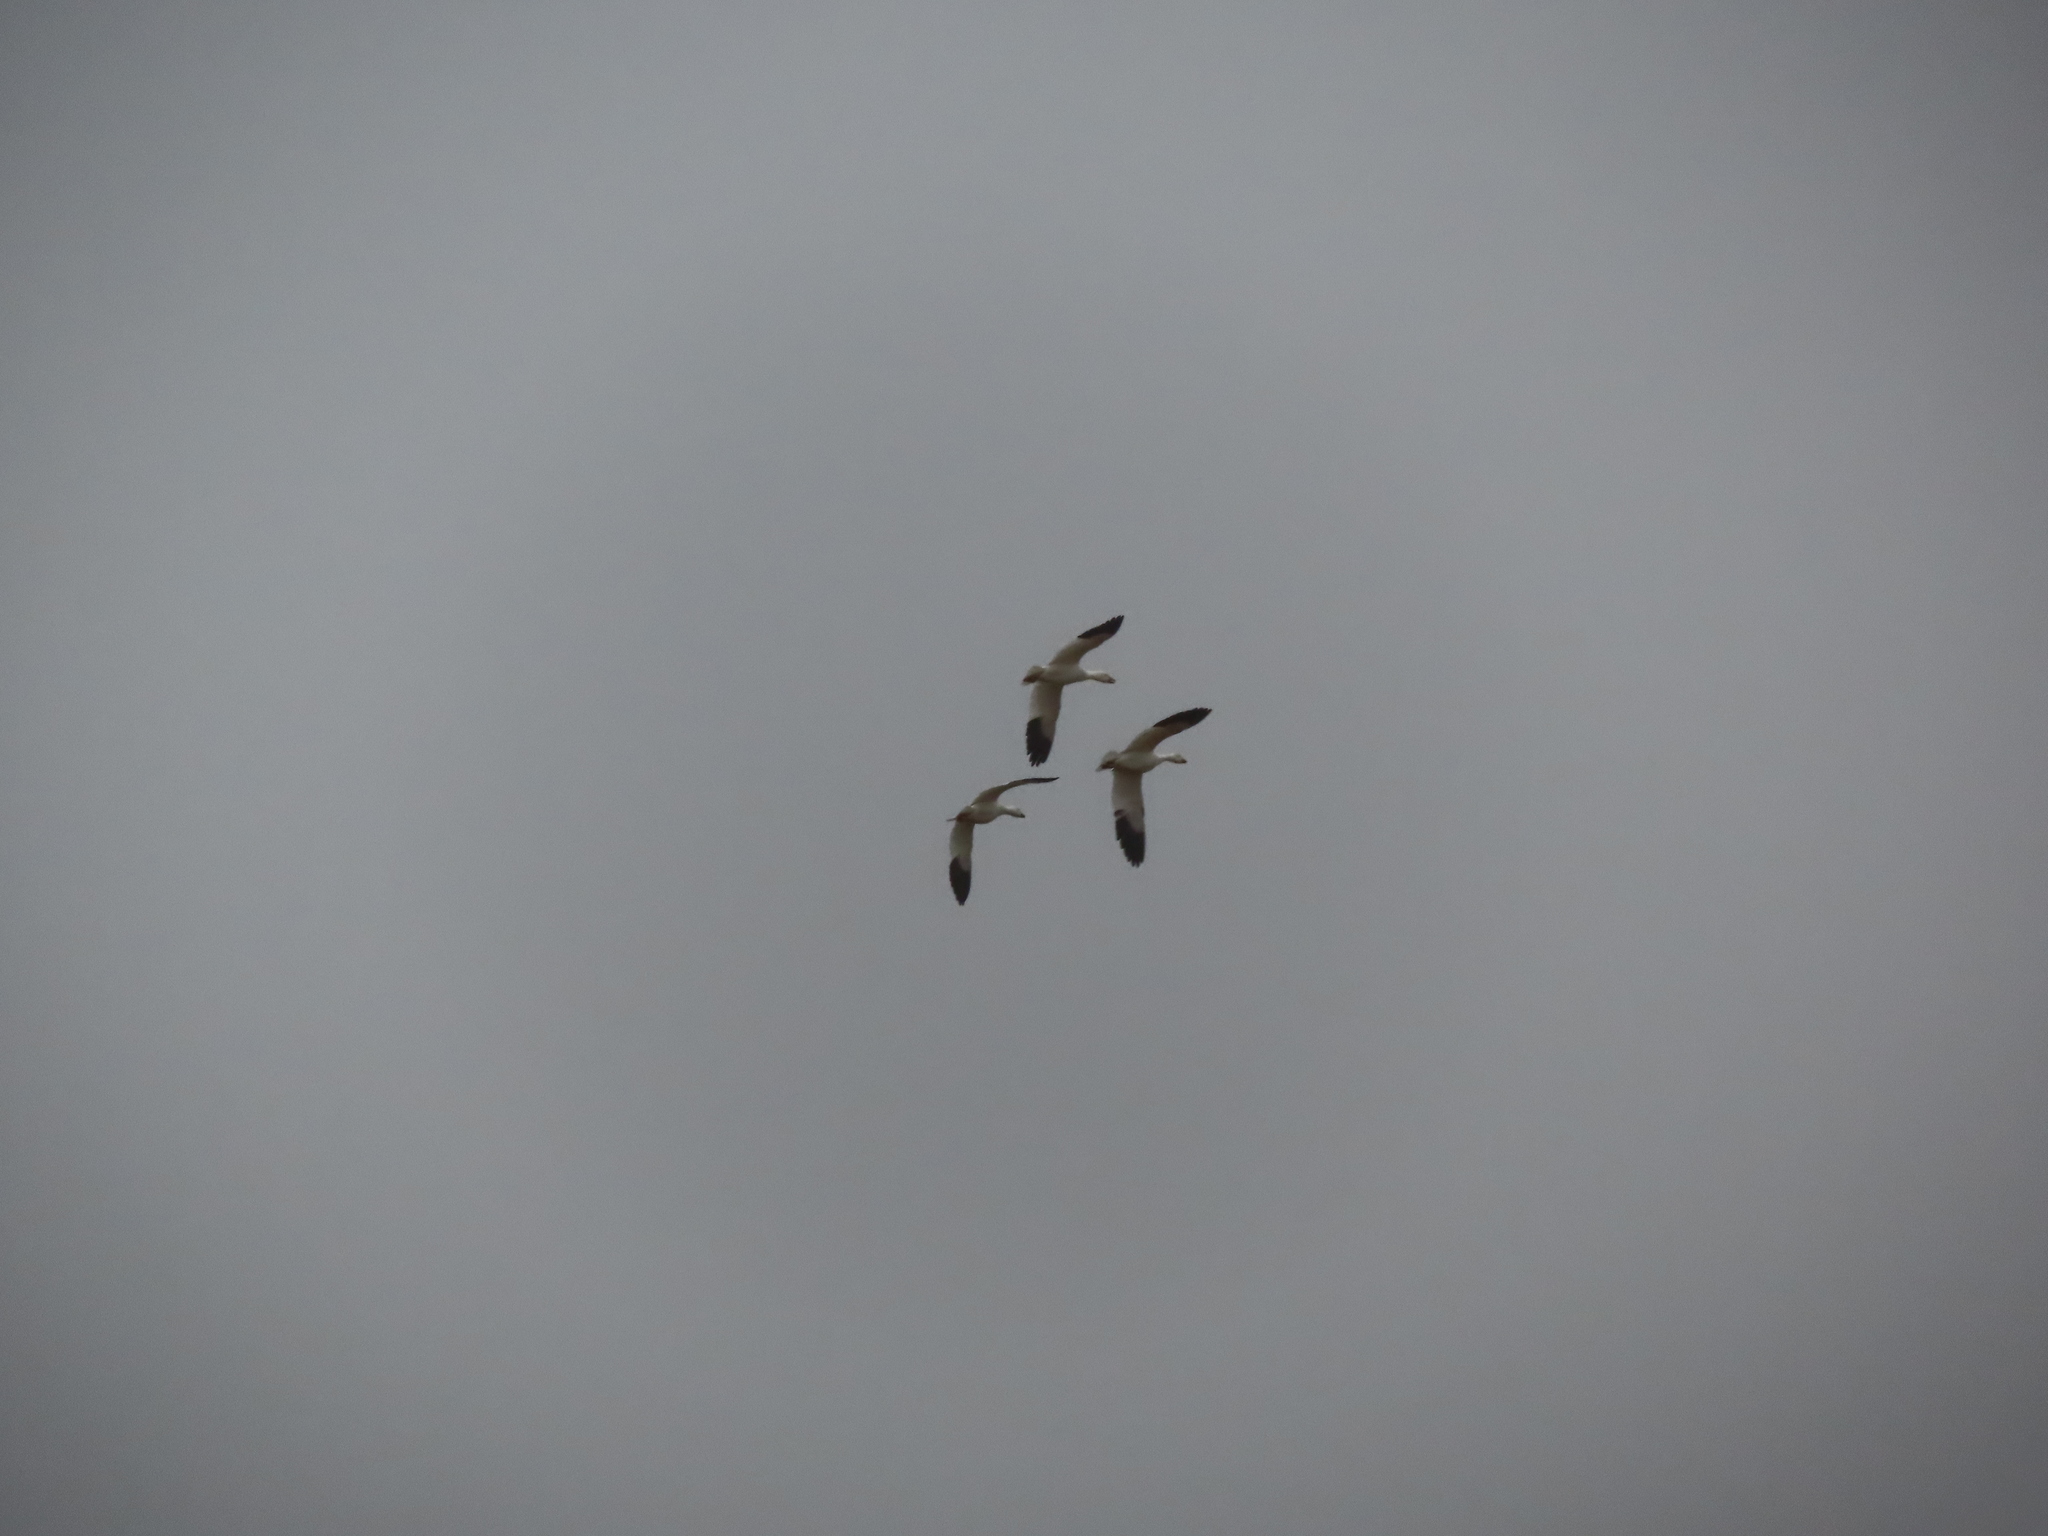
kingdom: Animalia
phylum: Chordata
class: Aves
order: Anseriformes
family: Anatidae
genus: Anser
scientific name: Anser caerulescens
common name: Snow goose
